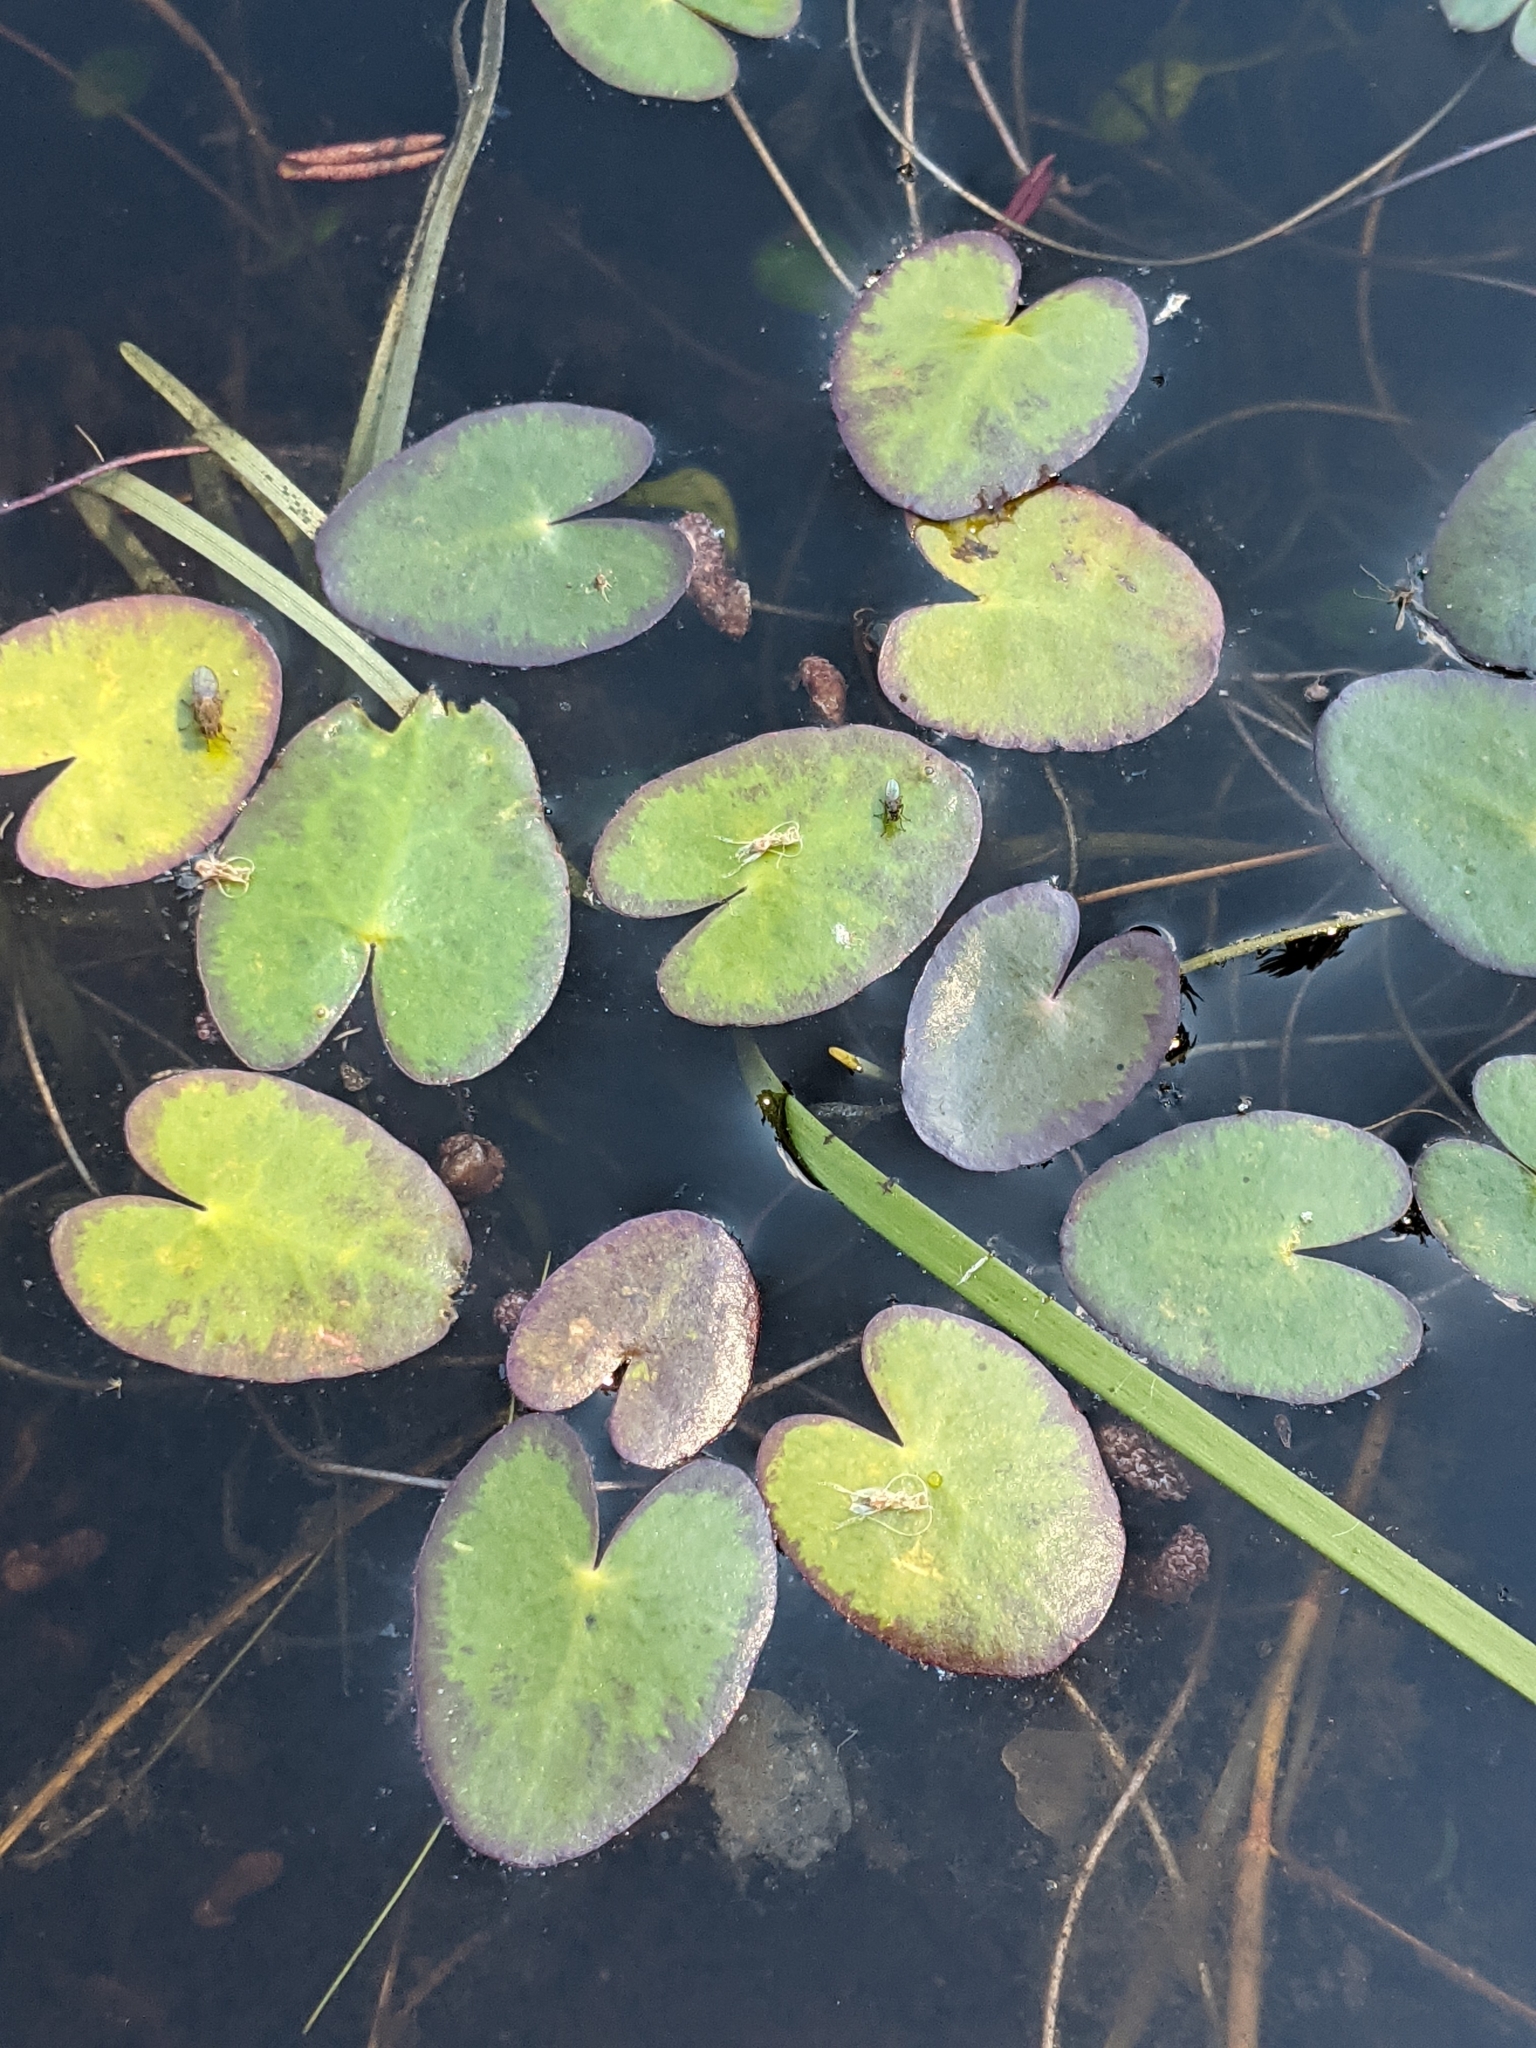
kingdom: Plantae
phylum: Tracheophyta
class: Magnoliopsida
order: Asterales
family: Menyanthaceae
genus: Nymphoides
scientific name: Nymphoides cordata
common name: Eight-angled floatingheart
